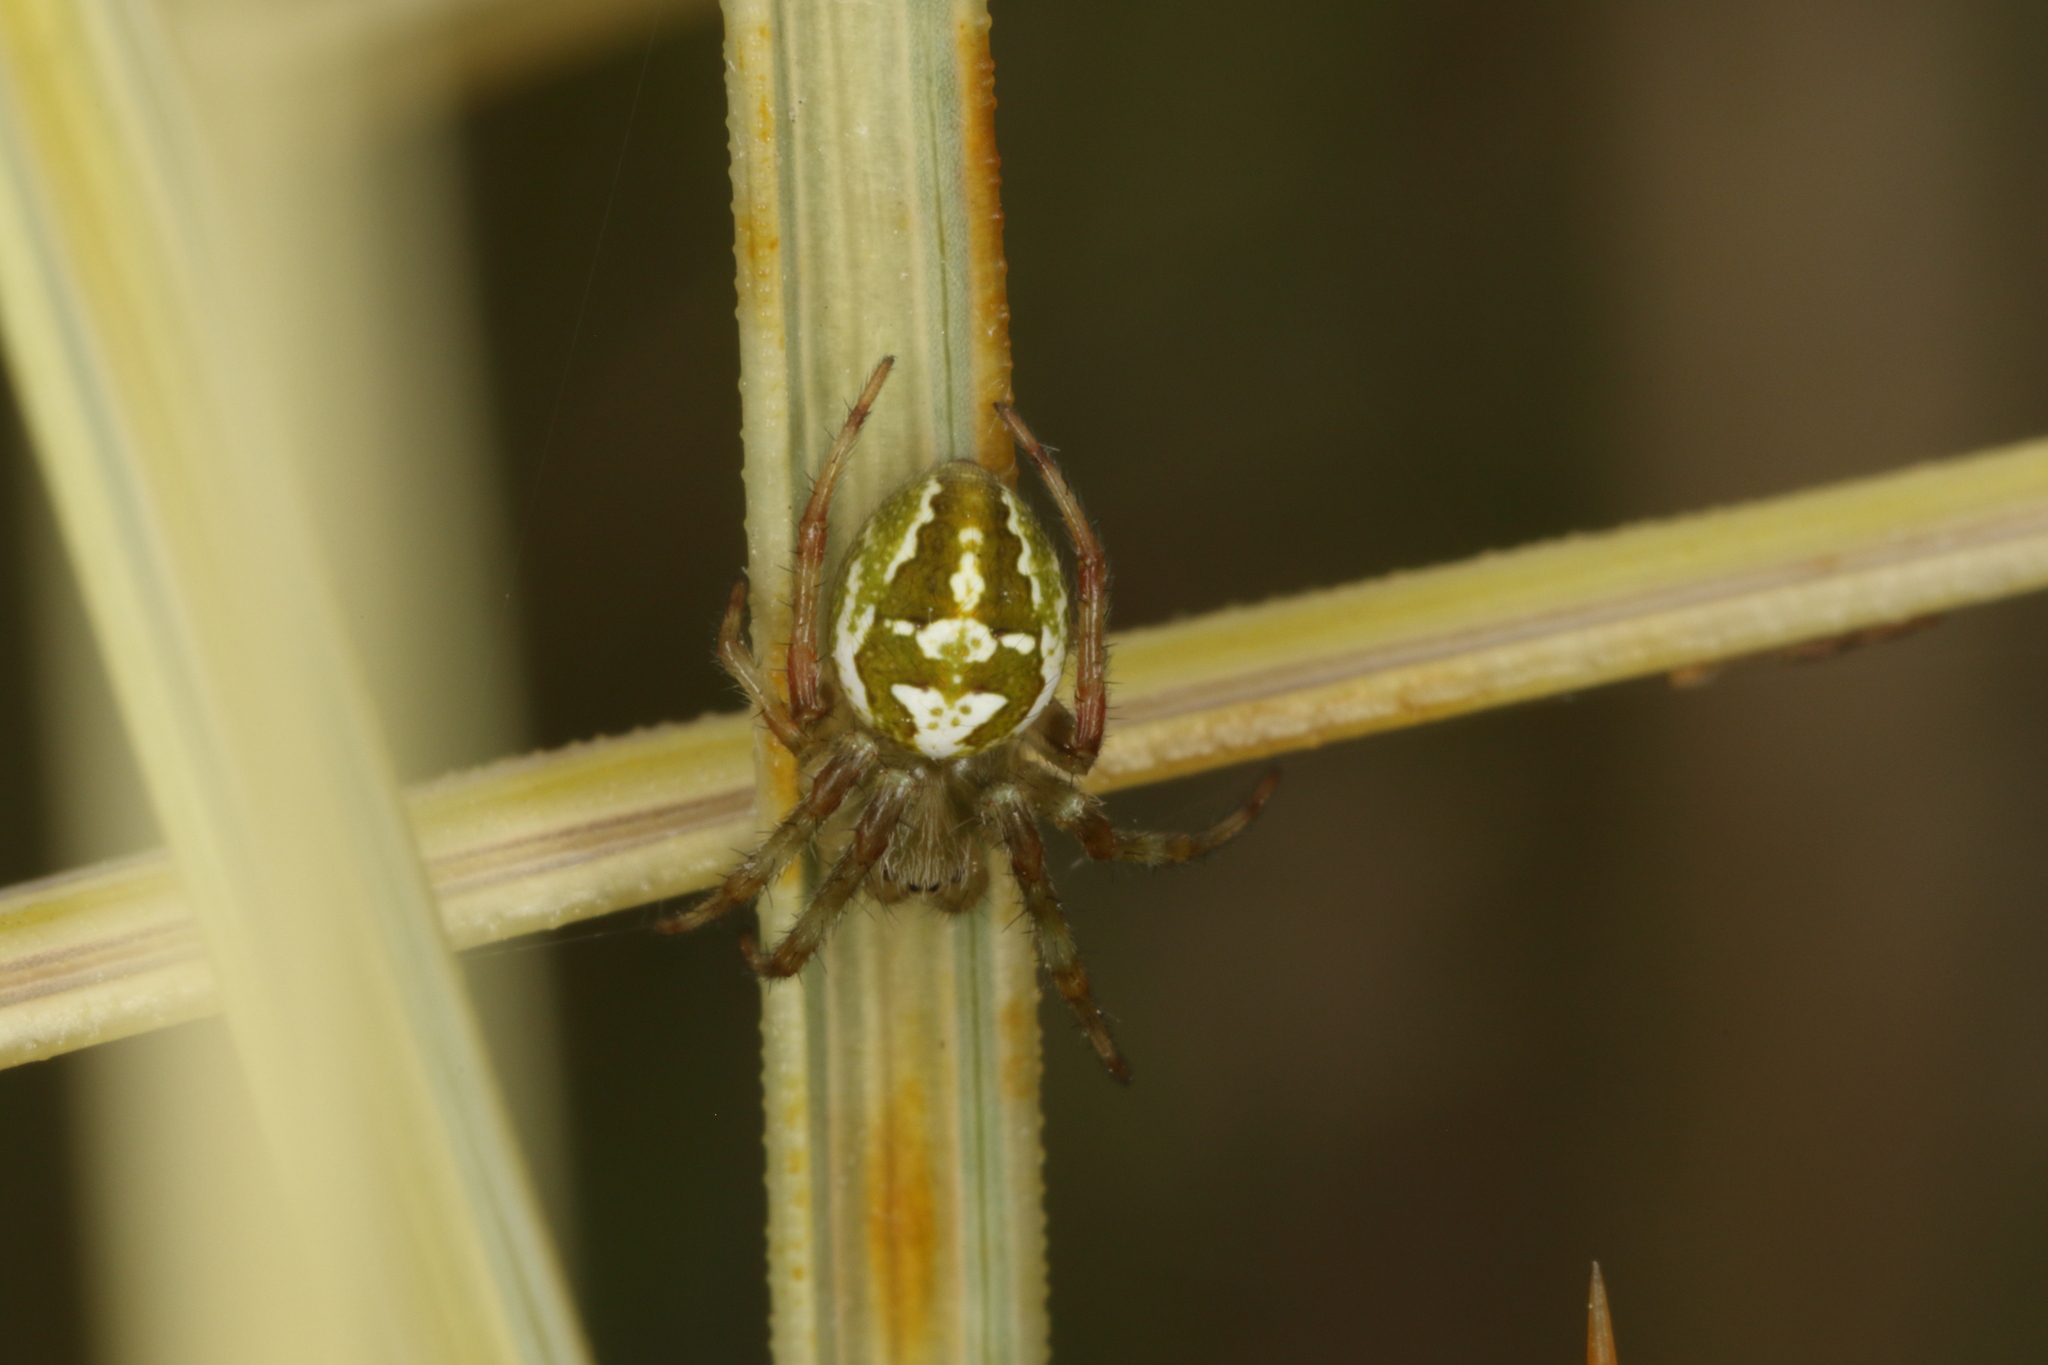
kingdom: Animalia
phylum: Arthropoda
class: Arachnida
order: Araneae
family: Araneidae
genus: Colaranea
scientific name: Colaranea verutum
